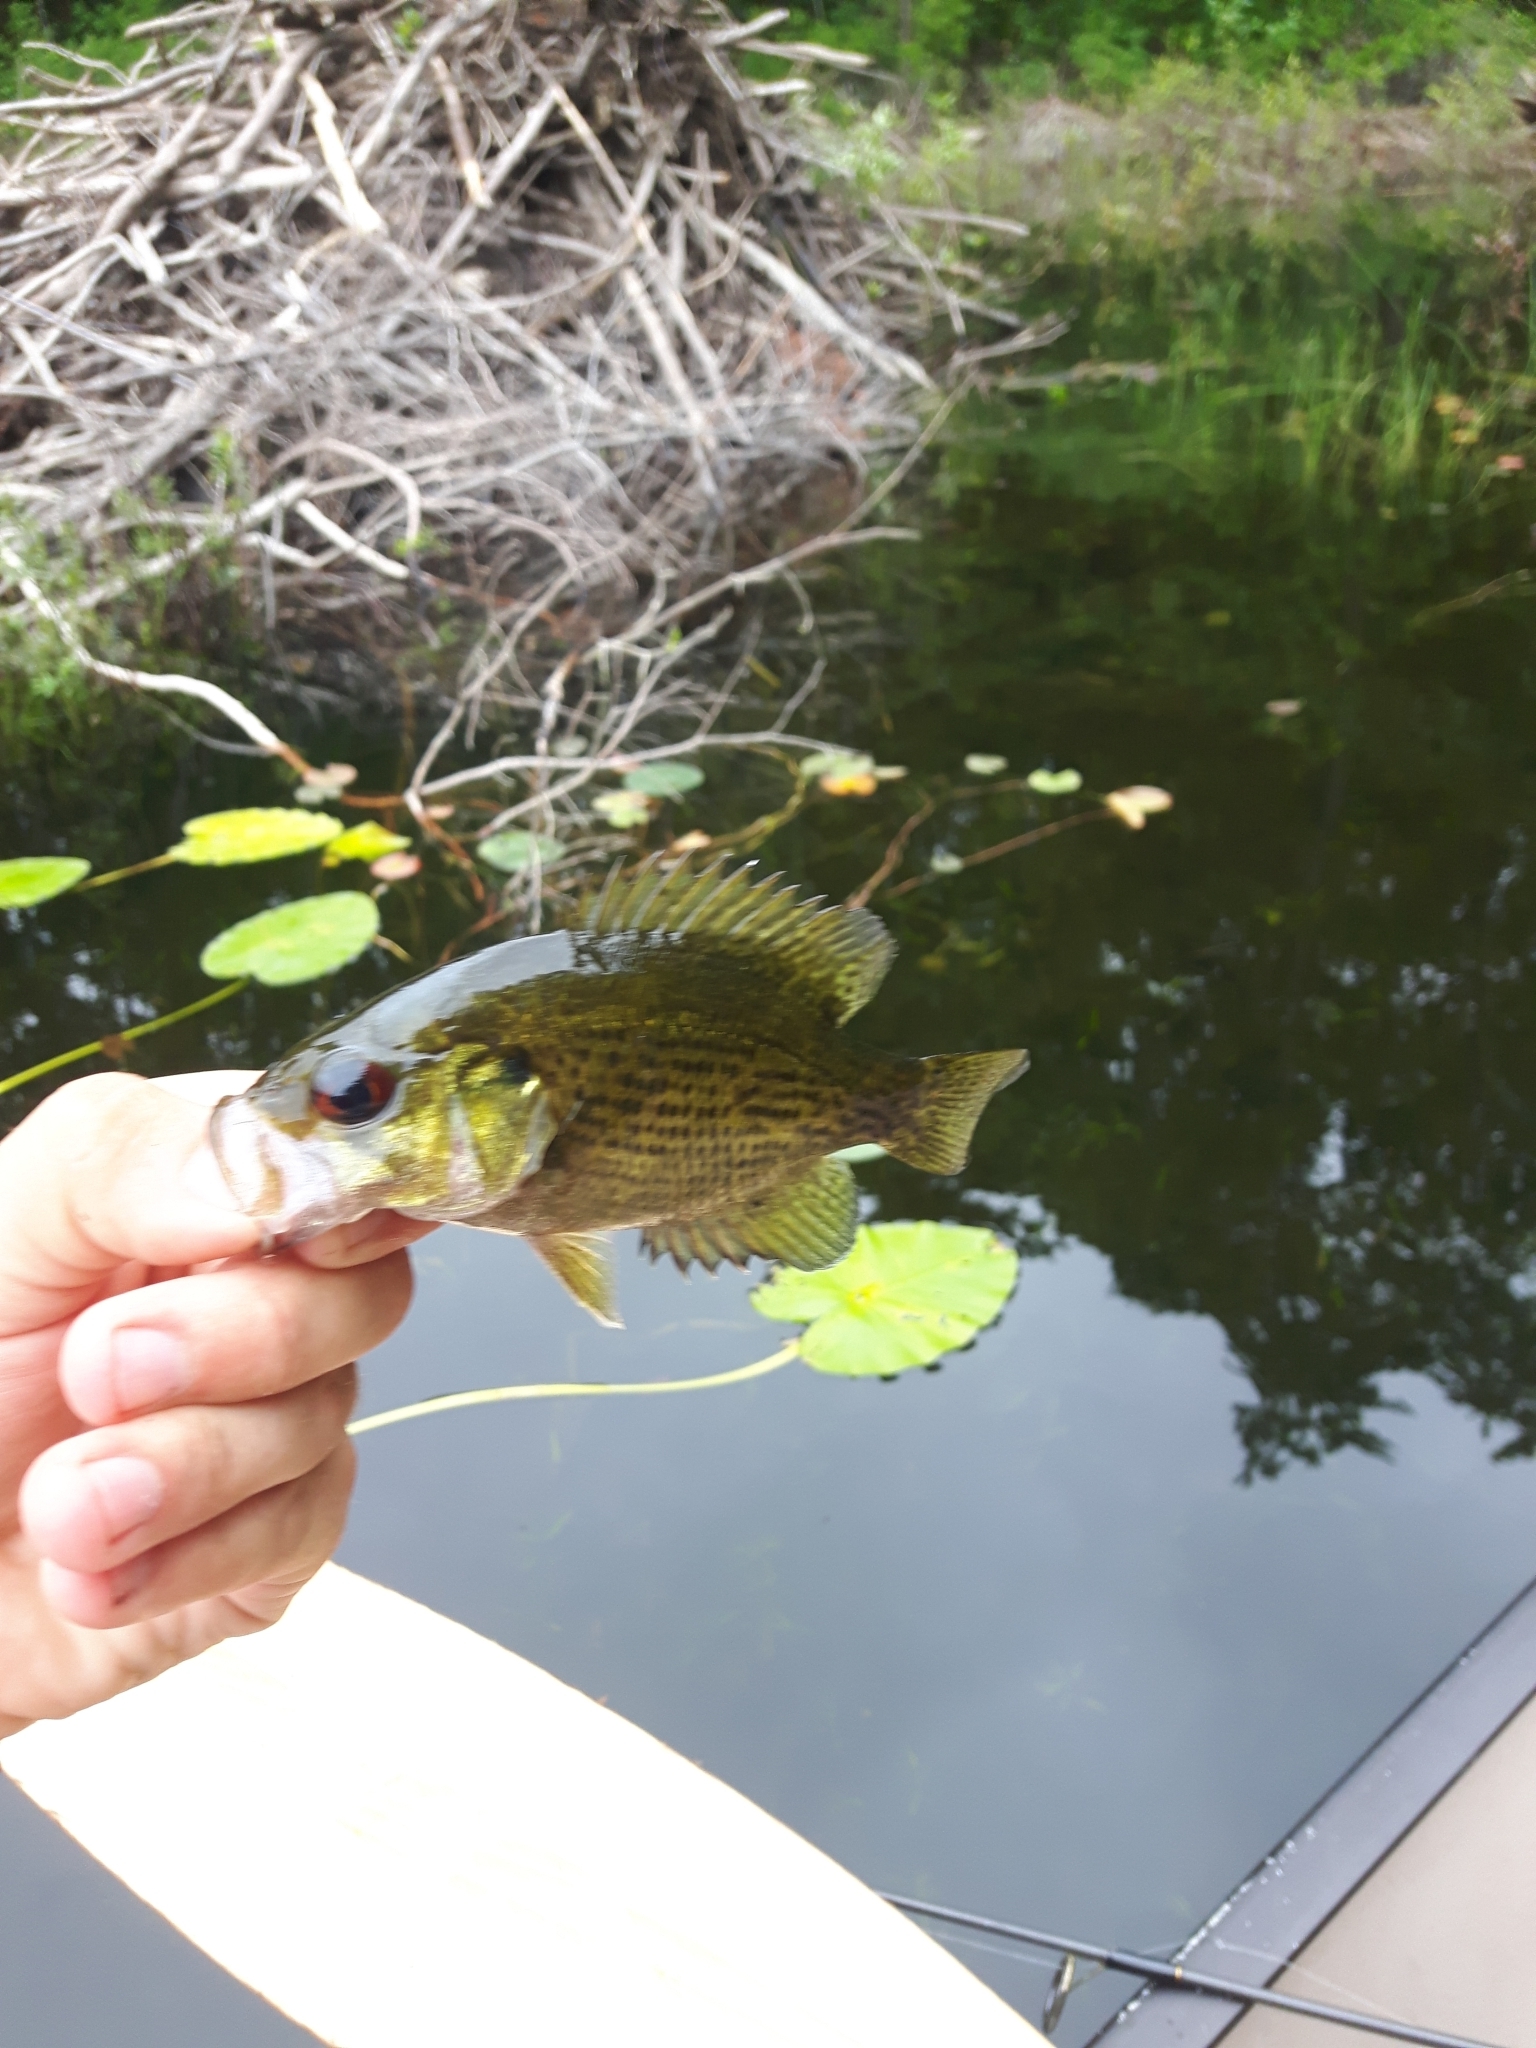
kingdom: Animalia
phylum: Chordata
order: Perciformes
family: Centrarchidae
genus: Ambloplites
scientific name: Ambloplites rupestris
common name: Rock bass
